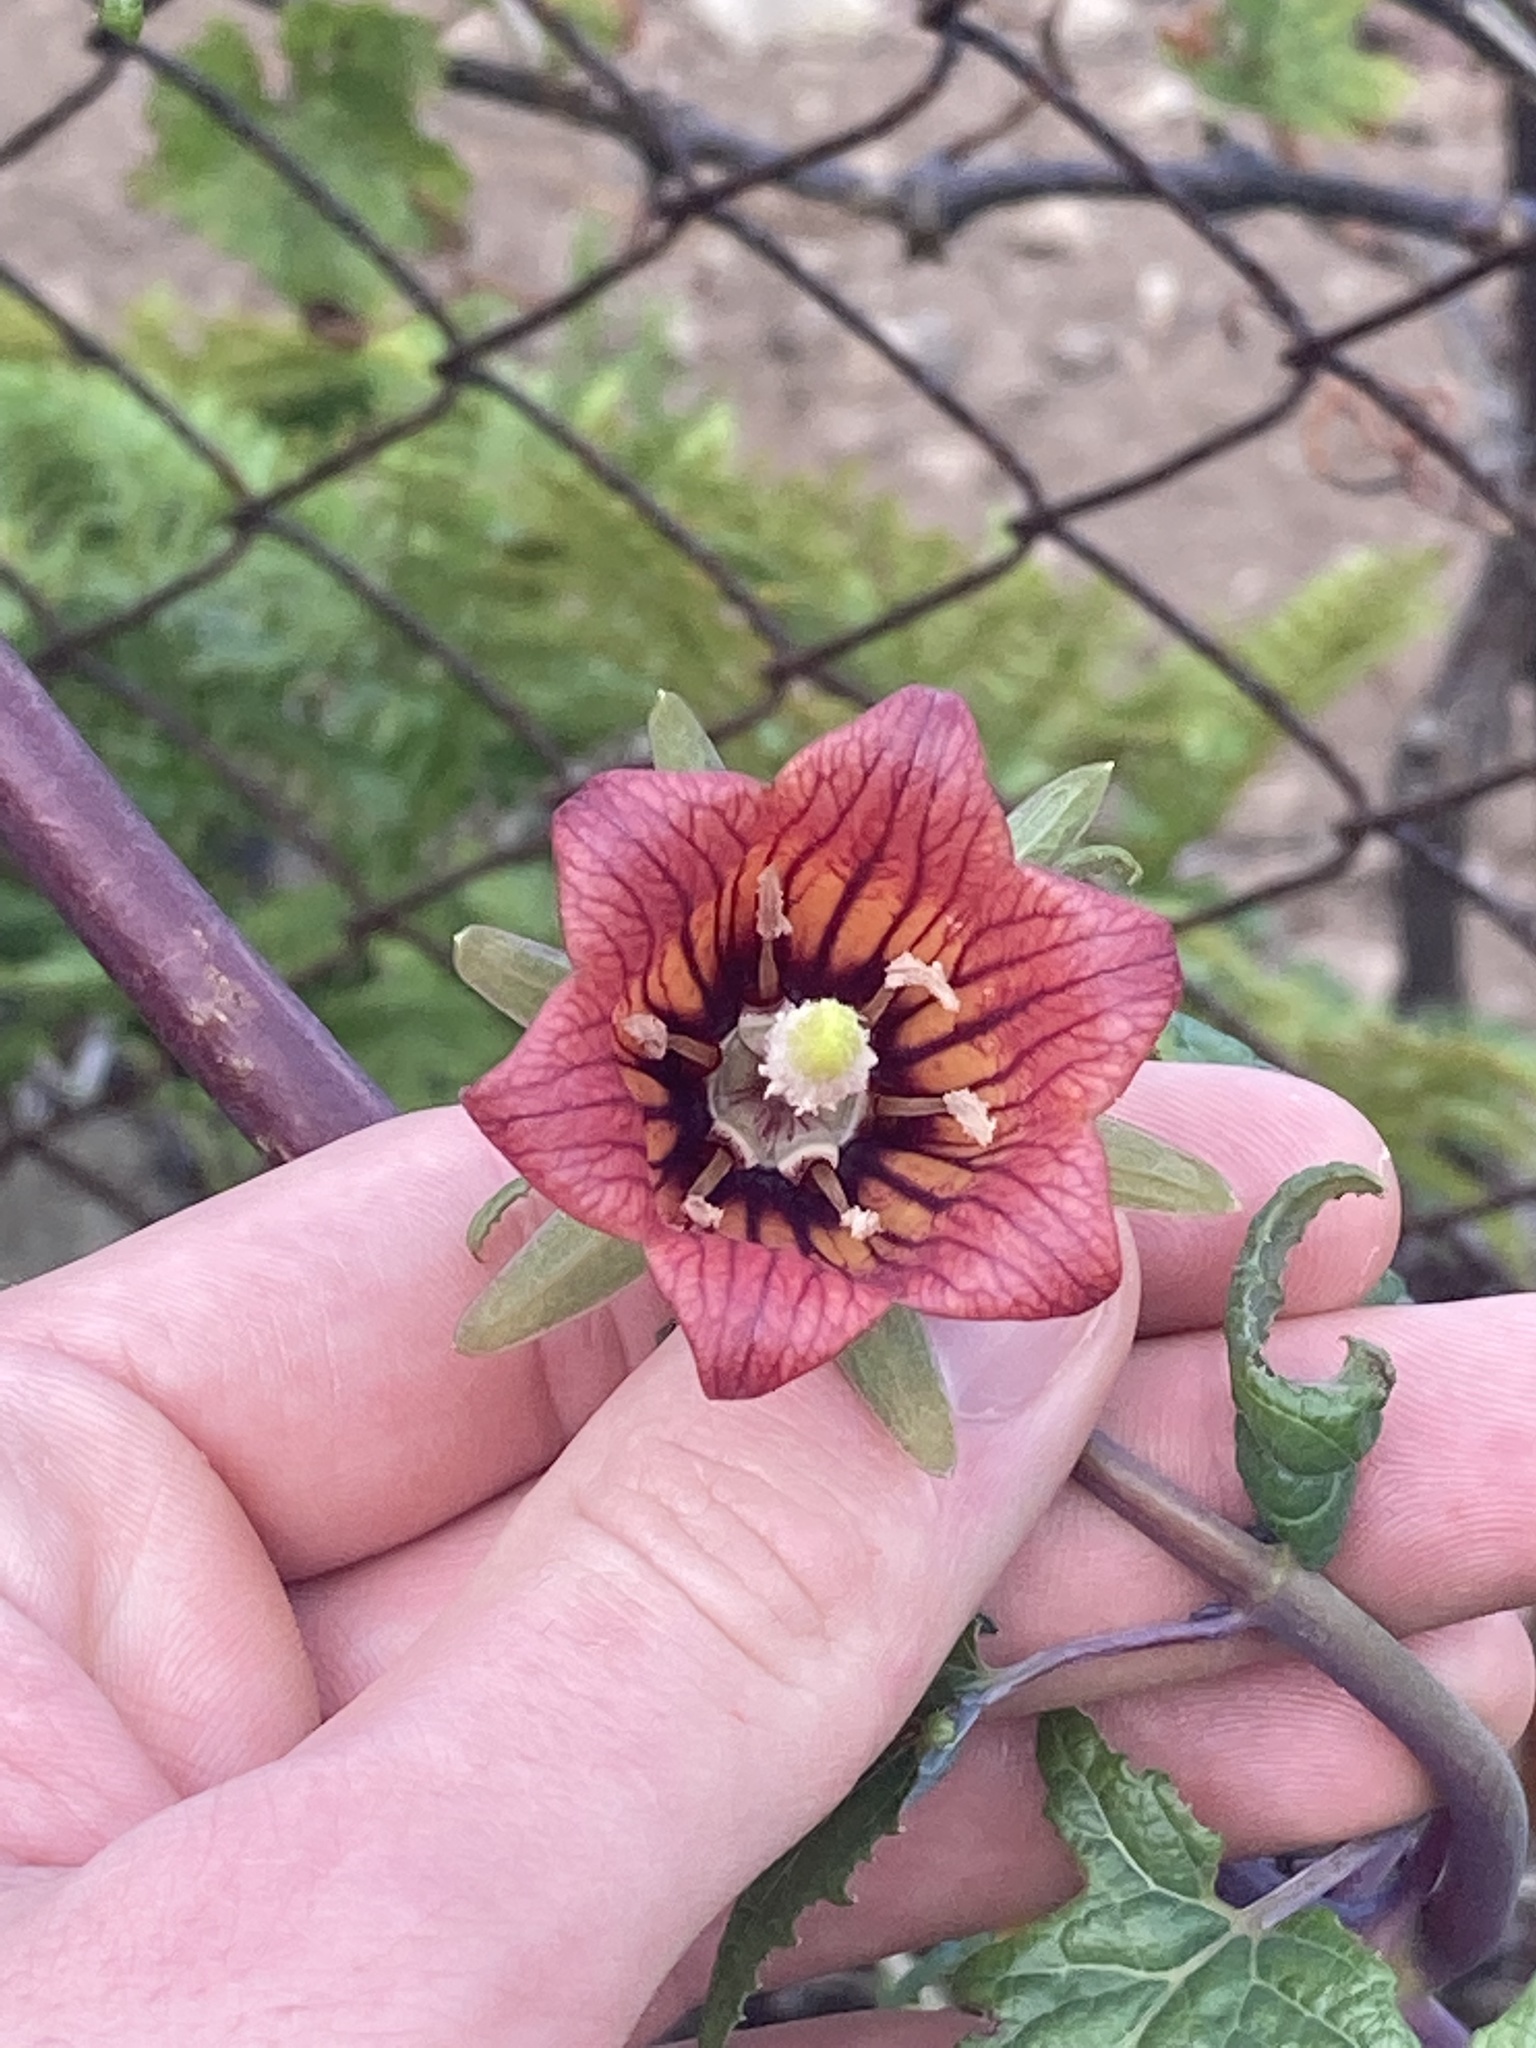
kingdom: Plantae
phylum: Tracheophyta
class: Magnoliopsida
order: Asterales
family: Campanulaceae
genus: Canarina
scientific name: Canarina canariensis
